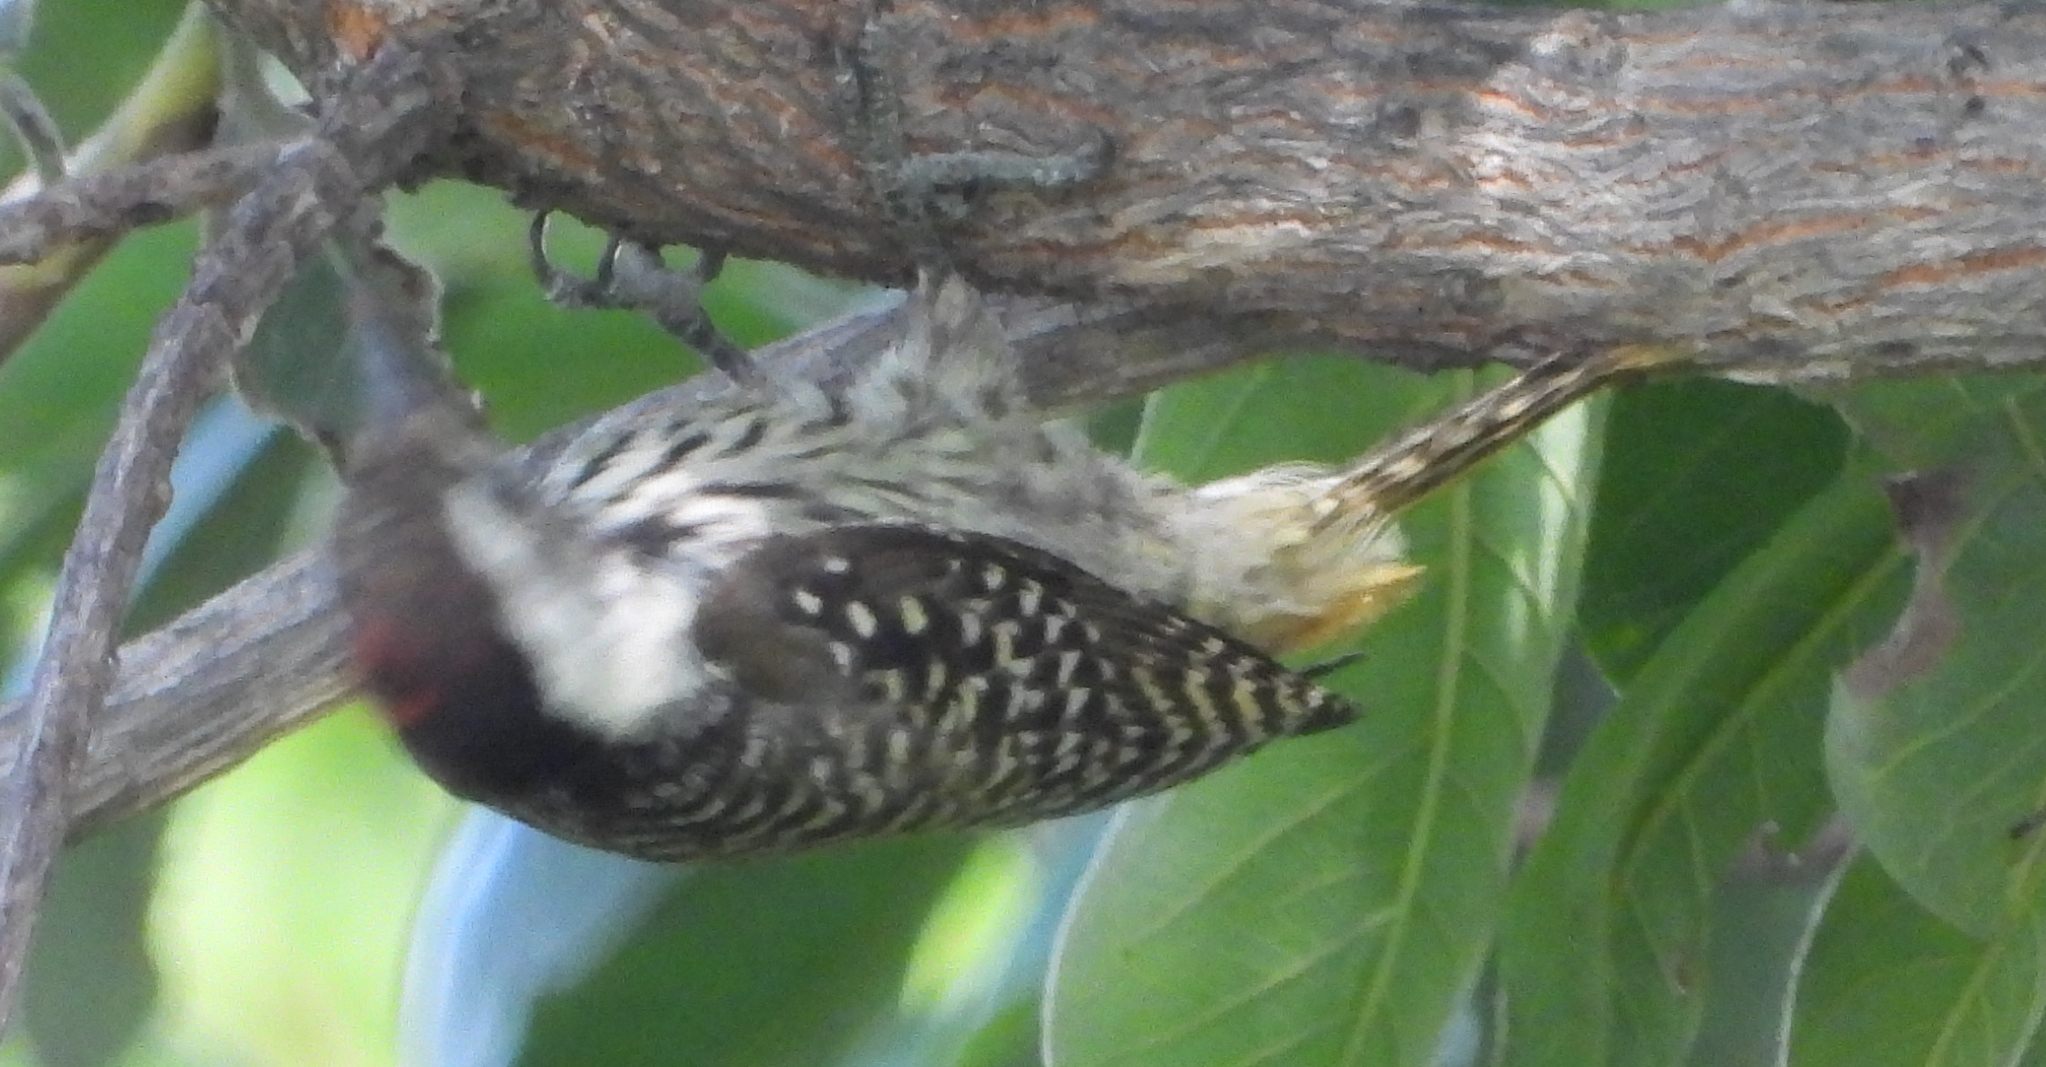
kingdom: Animalia
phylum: Chordata
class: Aves
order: Piciformes
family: Picidae
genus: Dendropicos
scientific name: Dendropicos fuscescens
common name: Cardinal woodpecker
